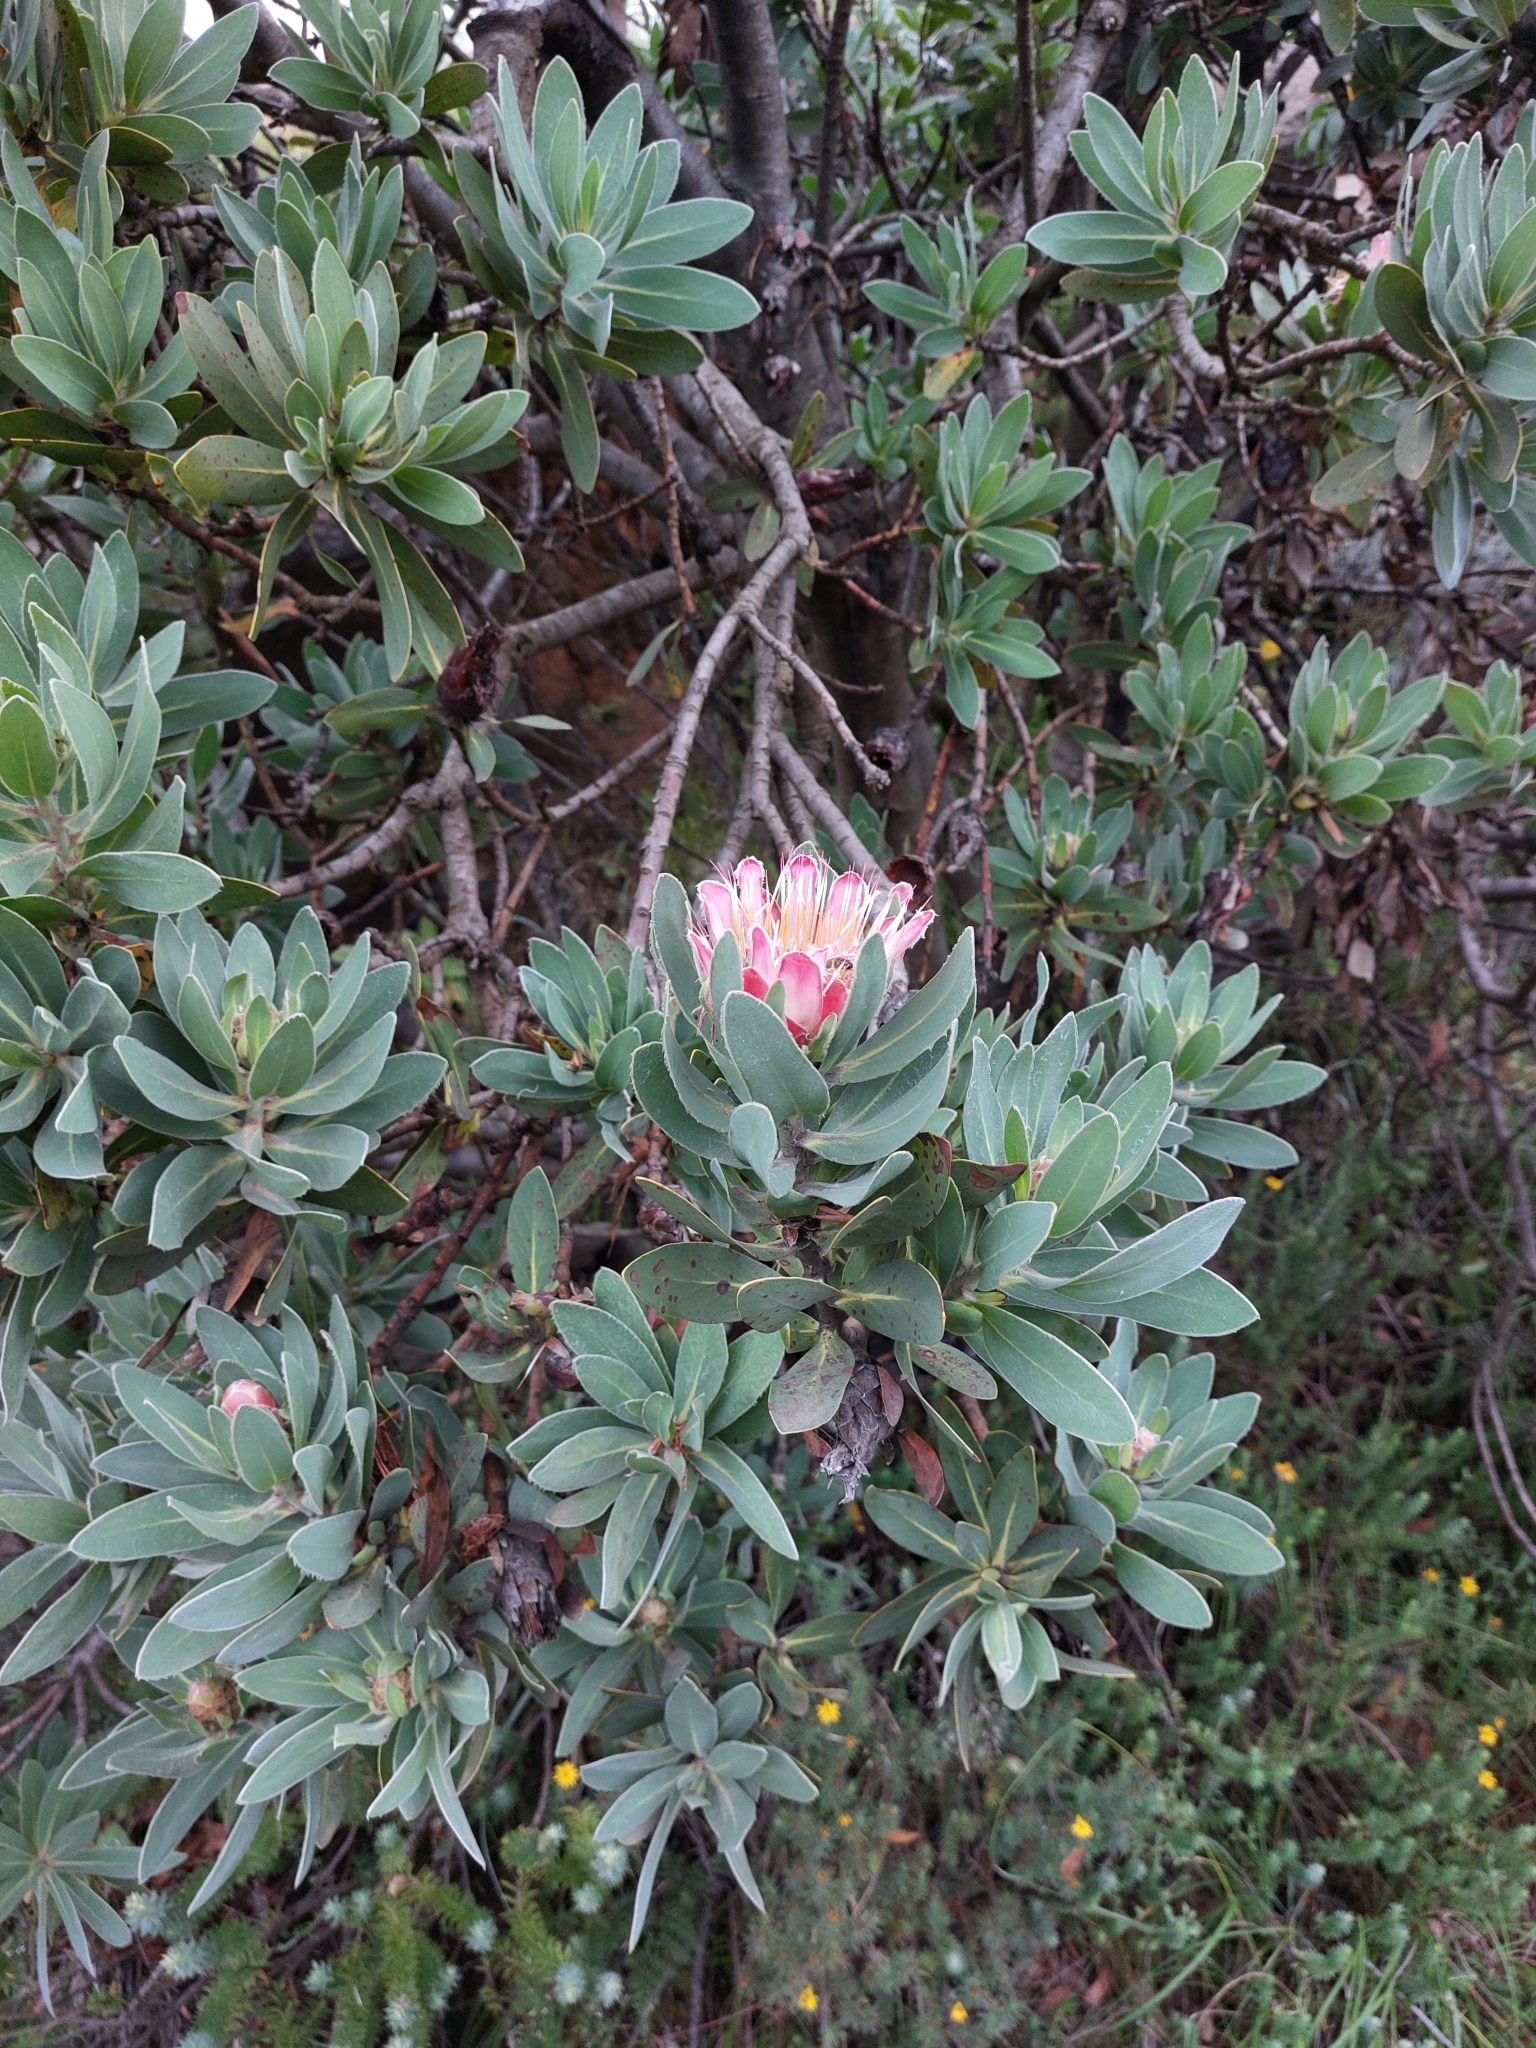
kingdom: Plantae
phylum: Tracheophyta
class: Magnoliopsida
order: Proteales
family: Proteaceae
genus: Protea
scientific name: Protea subvestita
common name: Lip-flower sugarbush
